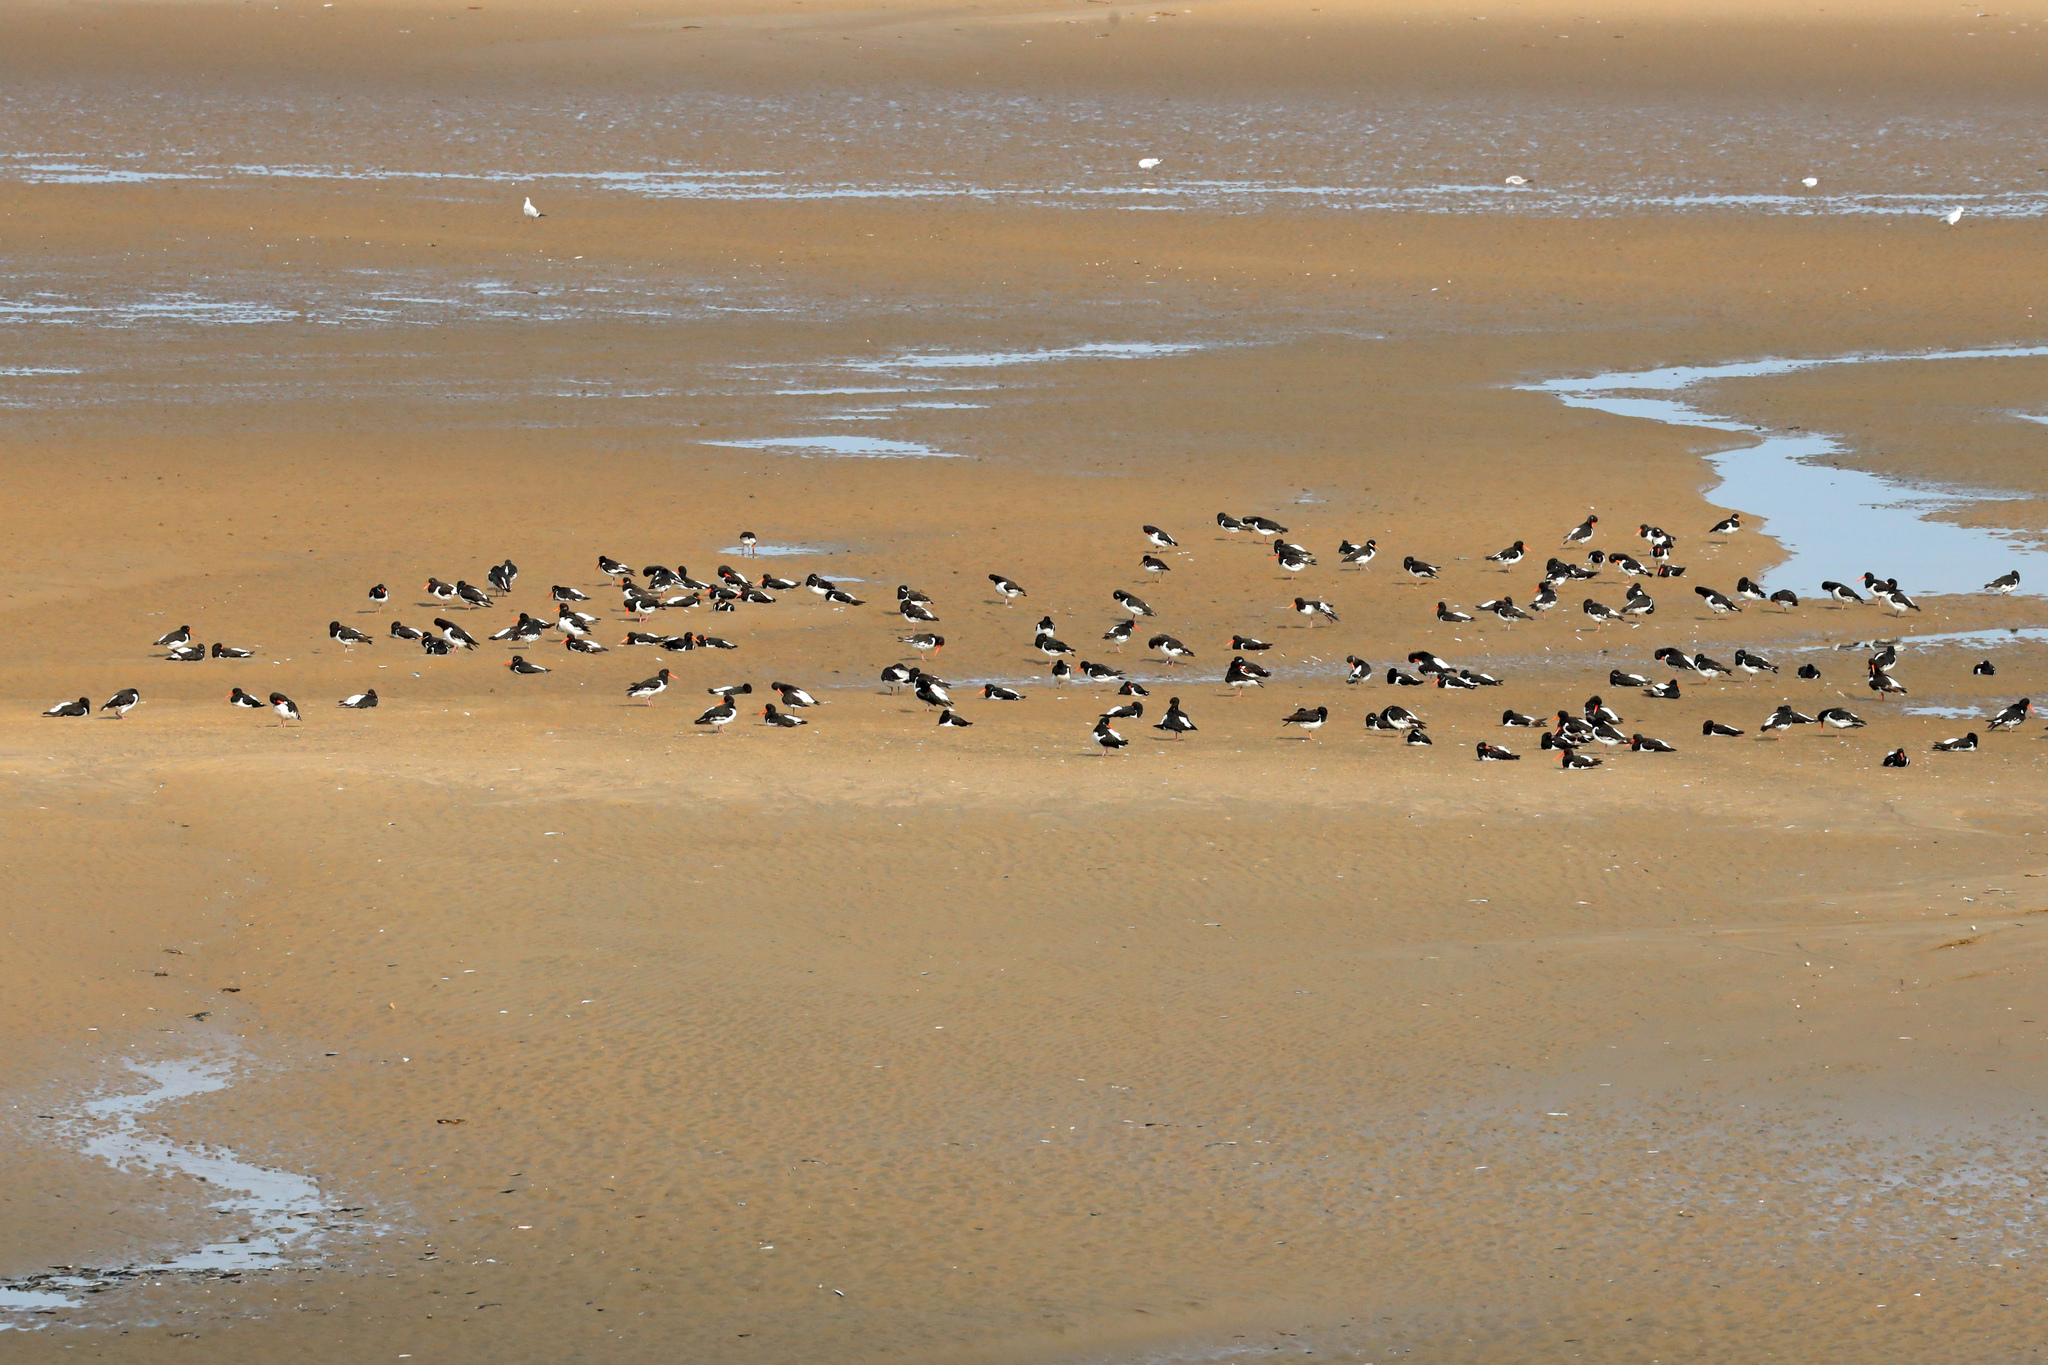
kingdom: Animalia
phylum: Chordata
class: Aves
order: Charadriiformes
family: Haematopodidae
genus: Haematopus
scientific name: Haematopus ostralegus
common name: Eurasian oystercatcher
